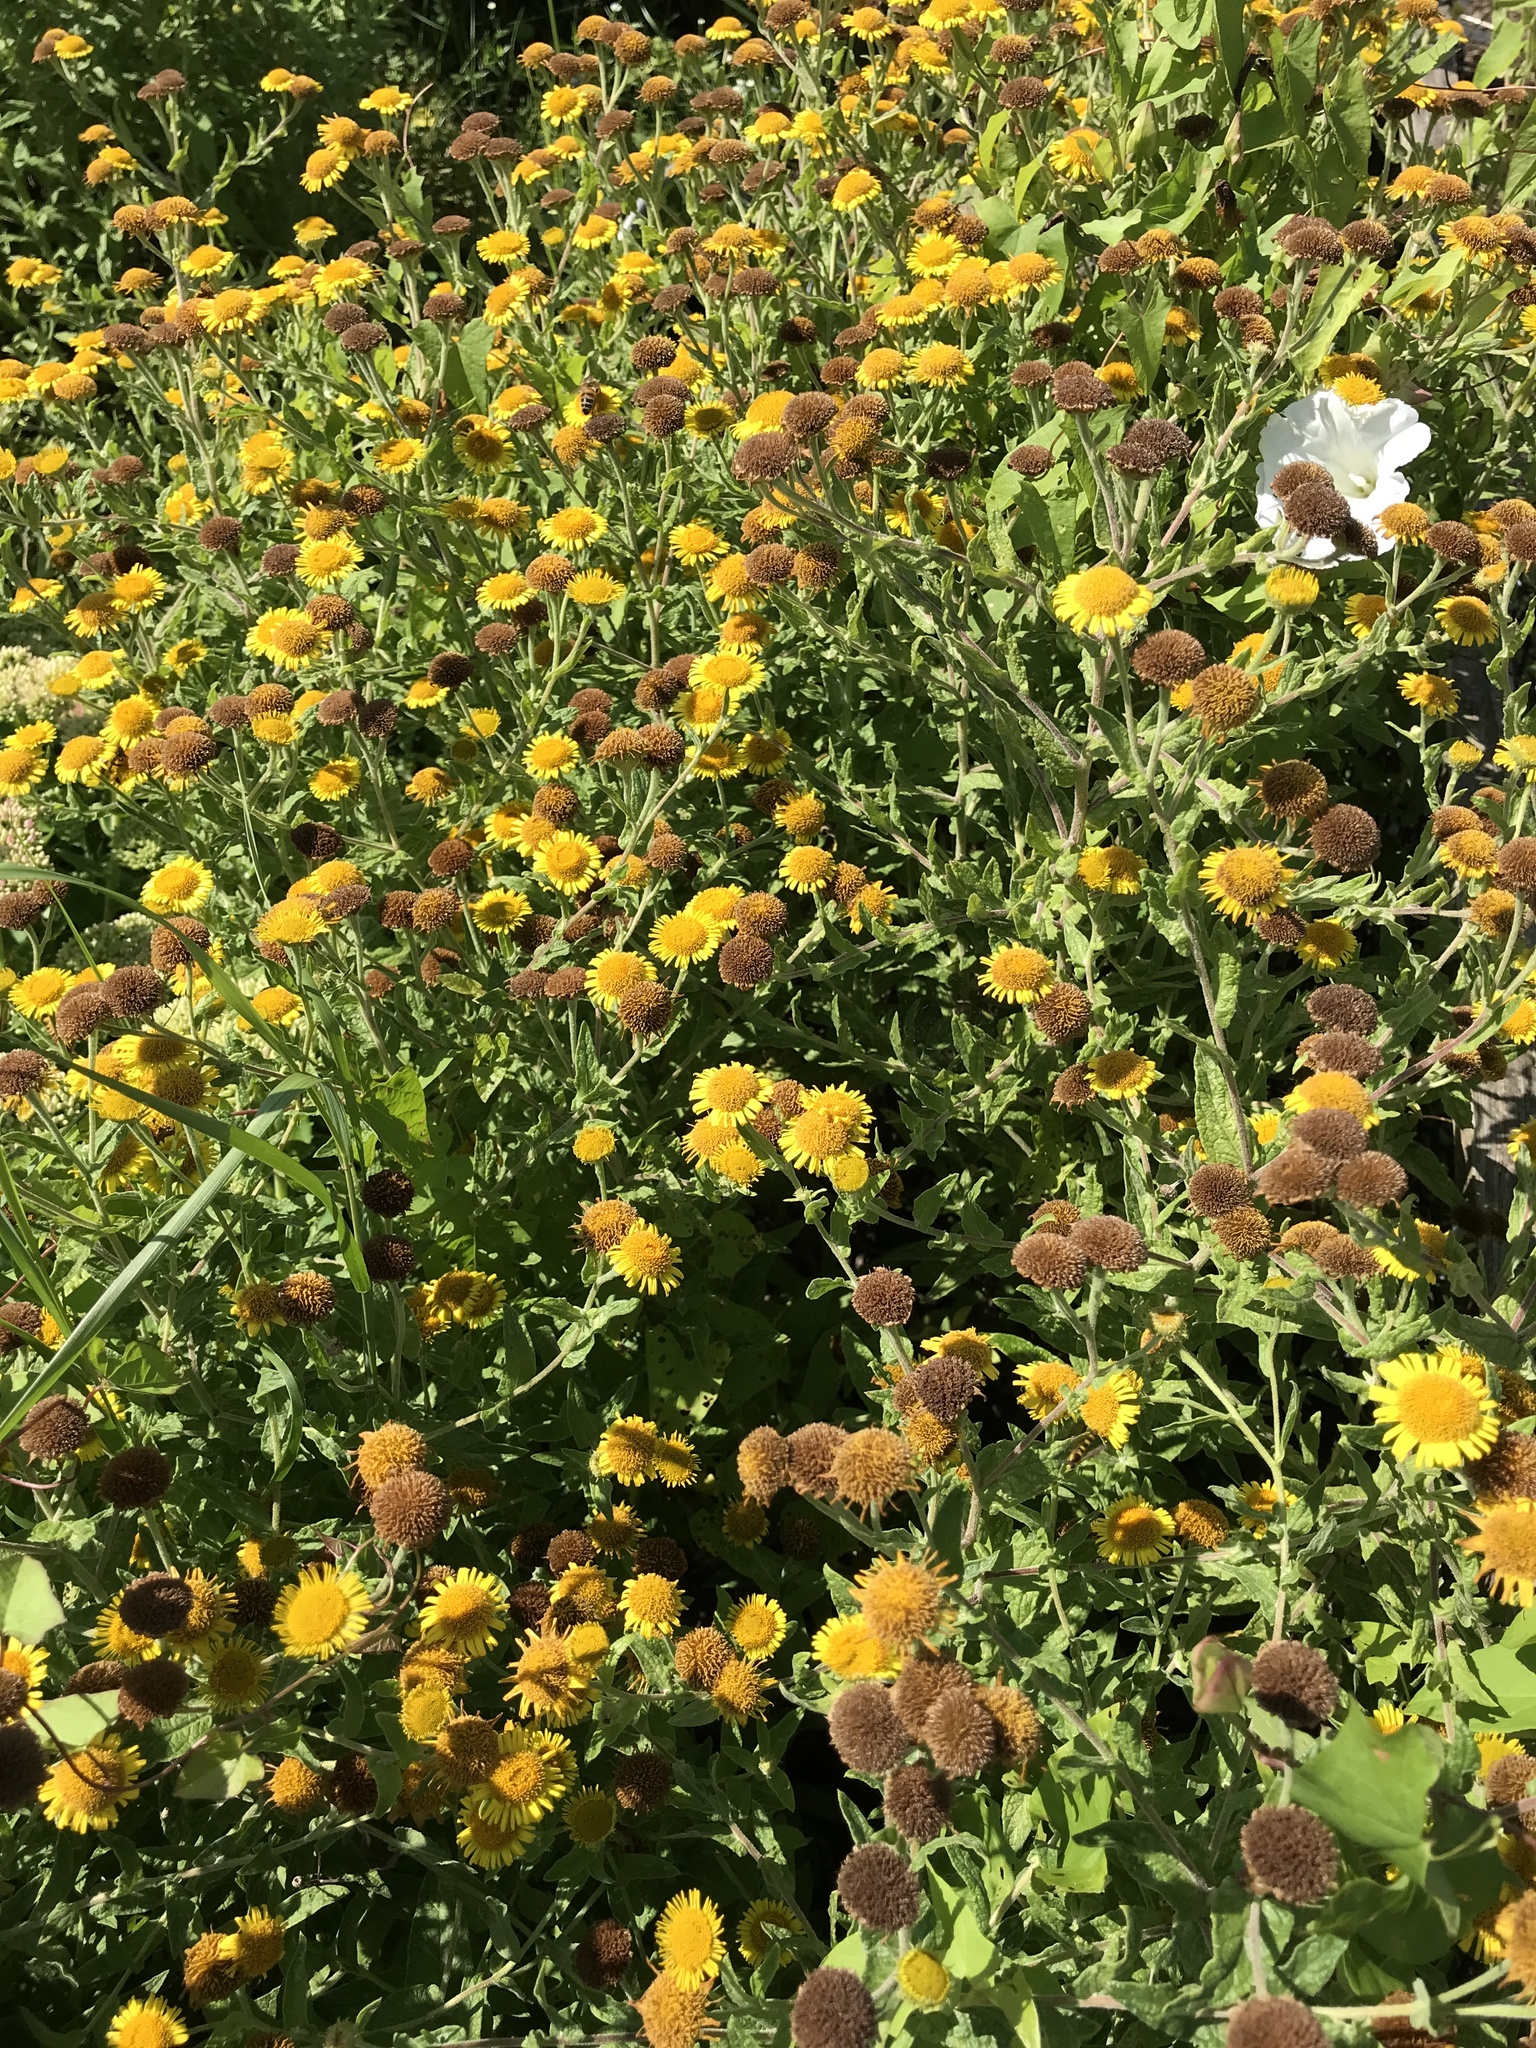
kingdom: Plantae
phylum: Tracheophyta
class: Magnoliopsida
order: Asterales
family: Asteraceae
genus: Pulicaria
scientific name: Pulicaria dysenterica
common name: Common fleabane
